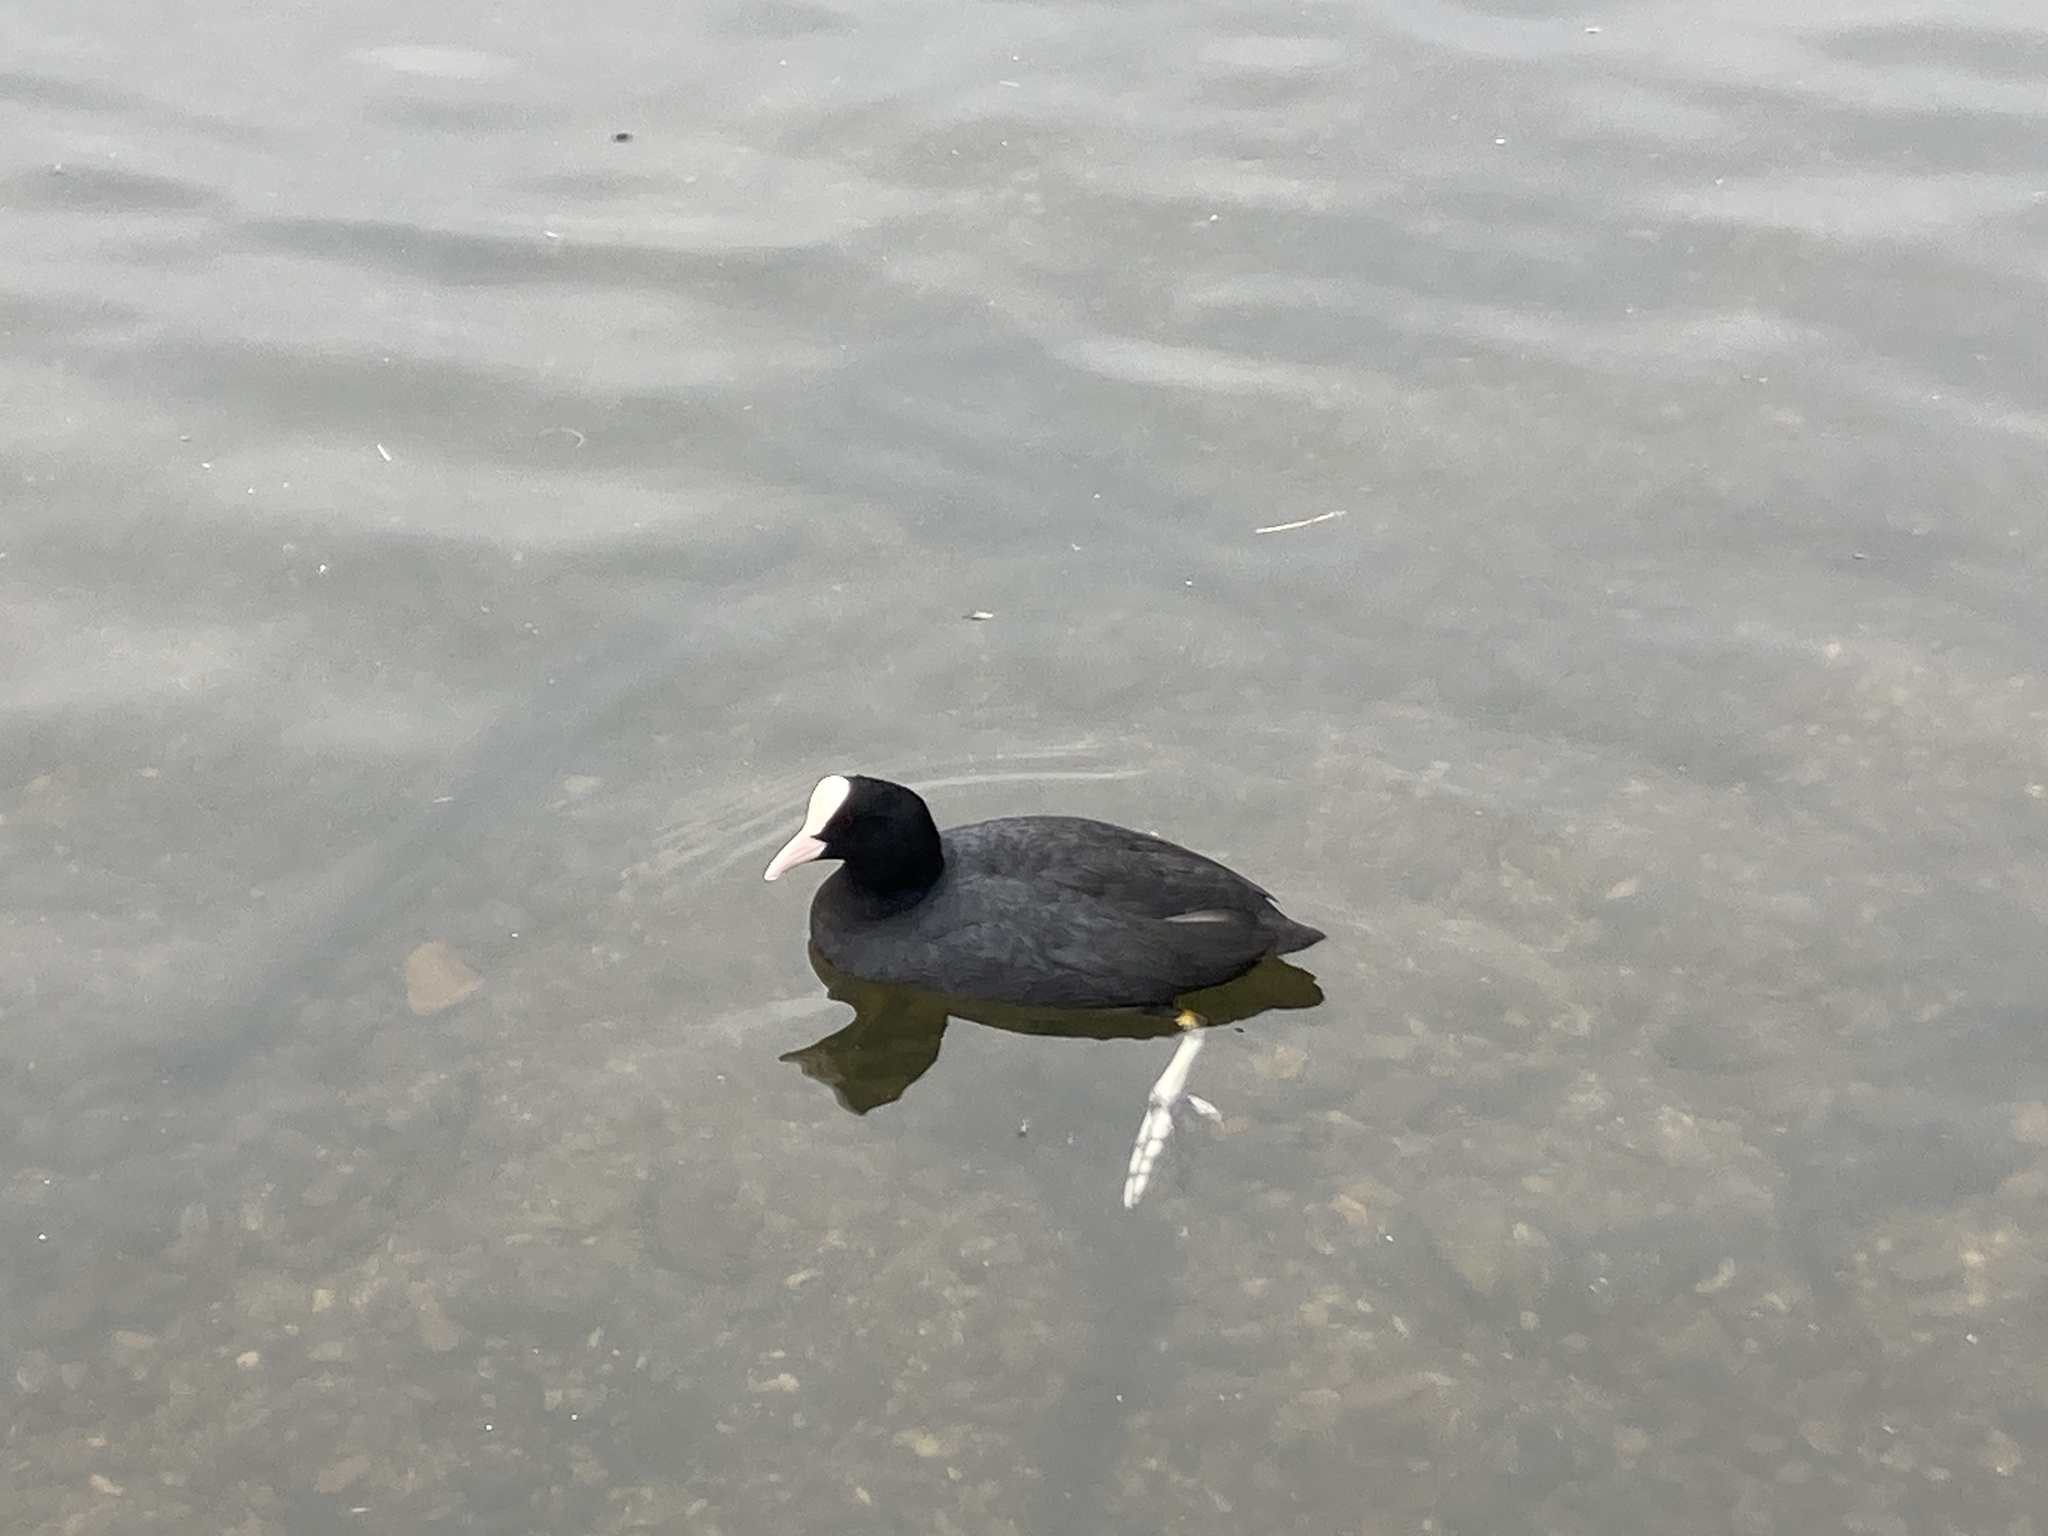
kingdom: Animalia
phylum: Chordata
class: Aves
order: Gruiformes
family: Rallidae
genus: Fulica
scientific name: Fulica atra
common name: Eurasian coot
